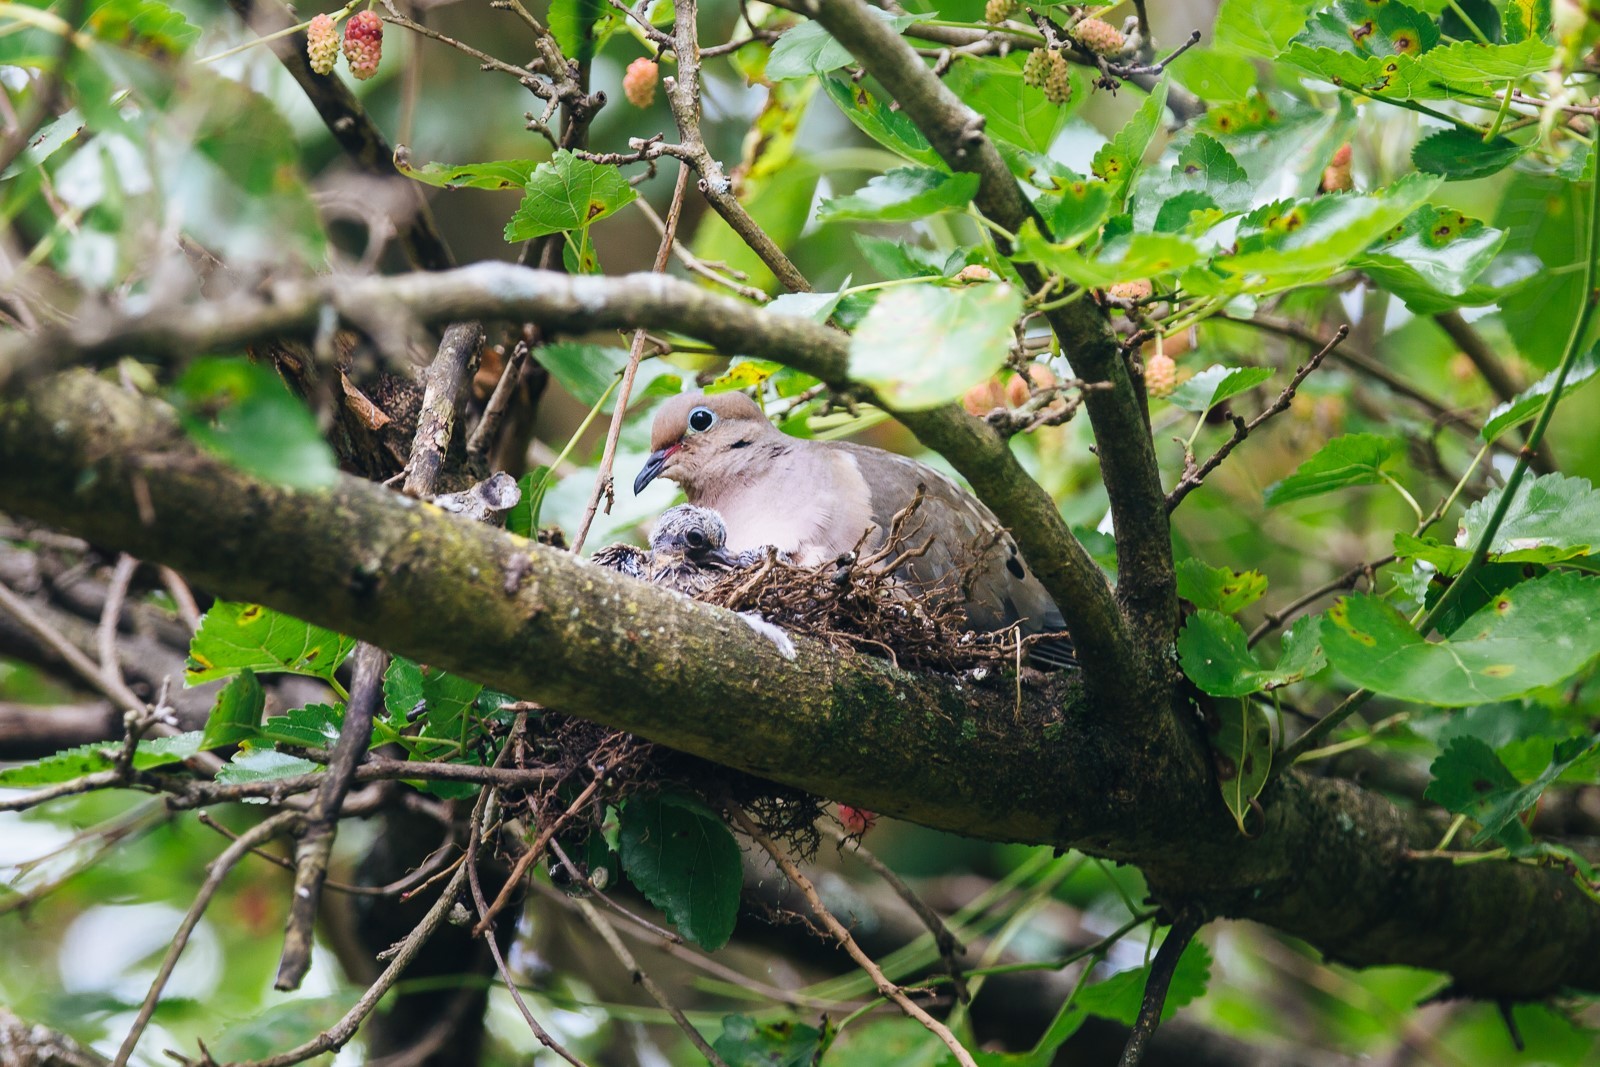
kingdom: Animalia
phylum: Chordata
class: Aves
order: Columbiformes
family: Columbidae
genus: Zenaida
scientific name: Zenaida macroura
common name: Mourning dove
